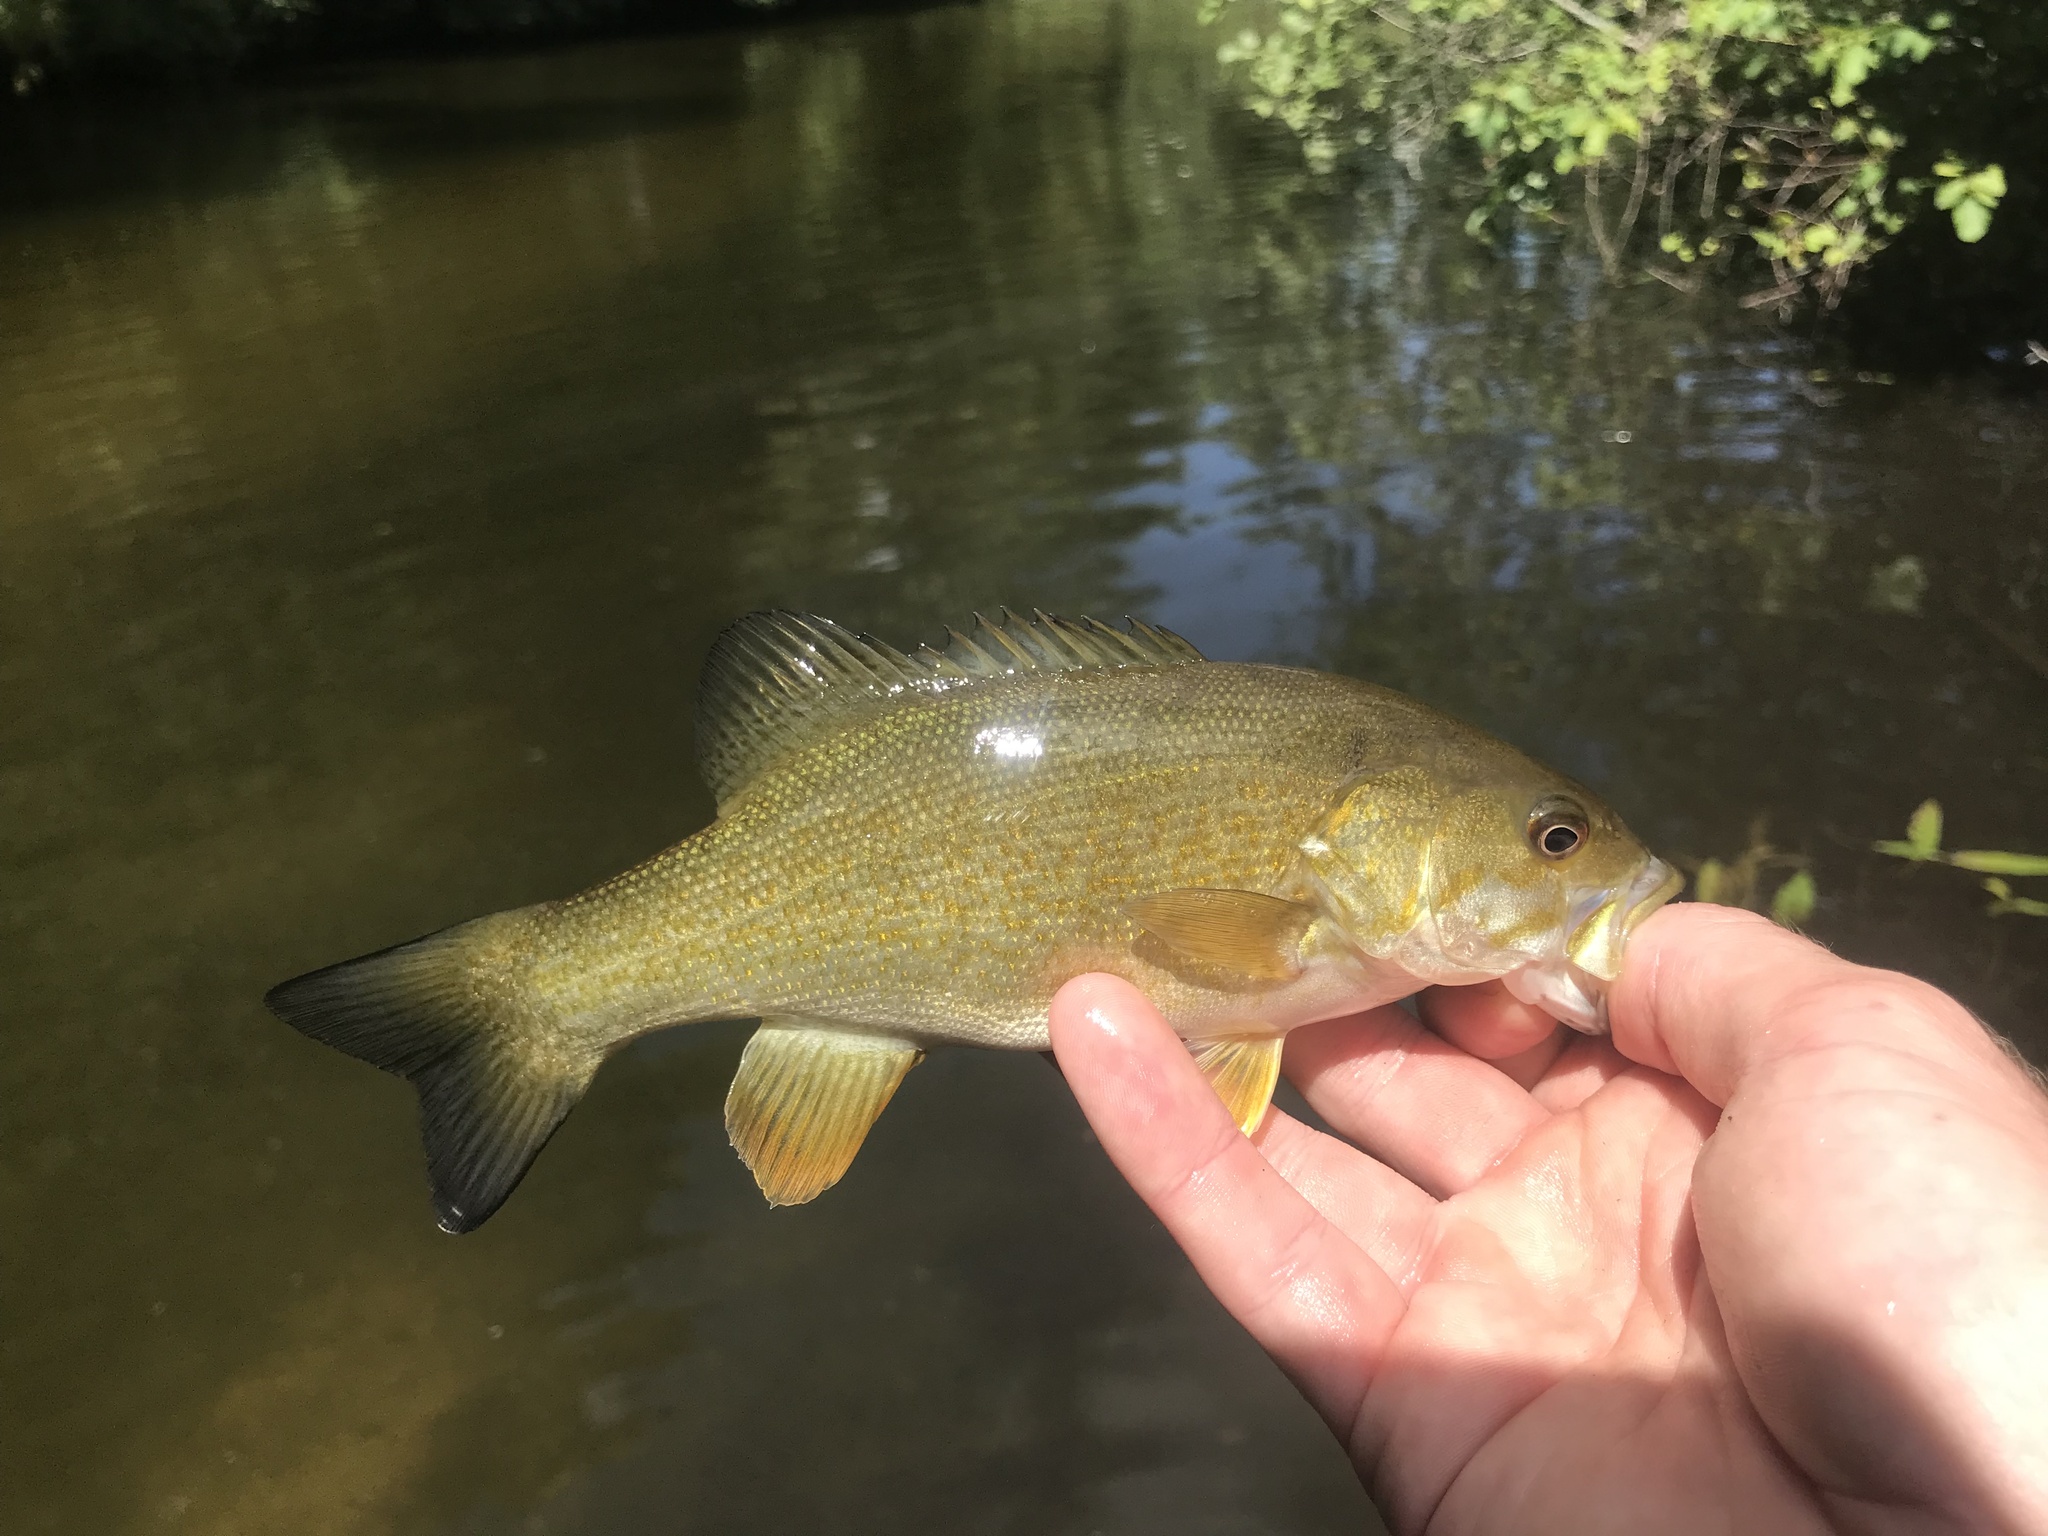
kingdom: Animalia
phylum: Chordata
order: Perciformes
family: Centrarchidae
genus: Micropterus
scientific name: Micropterus dolomieu
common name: Smallmouth bass
